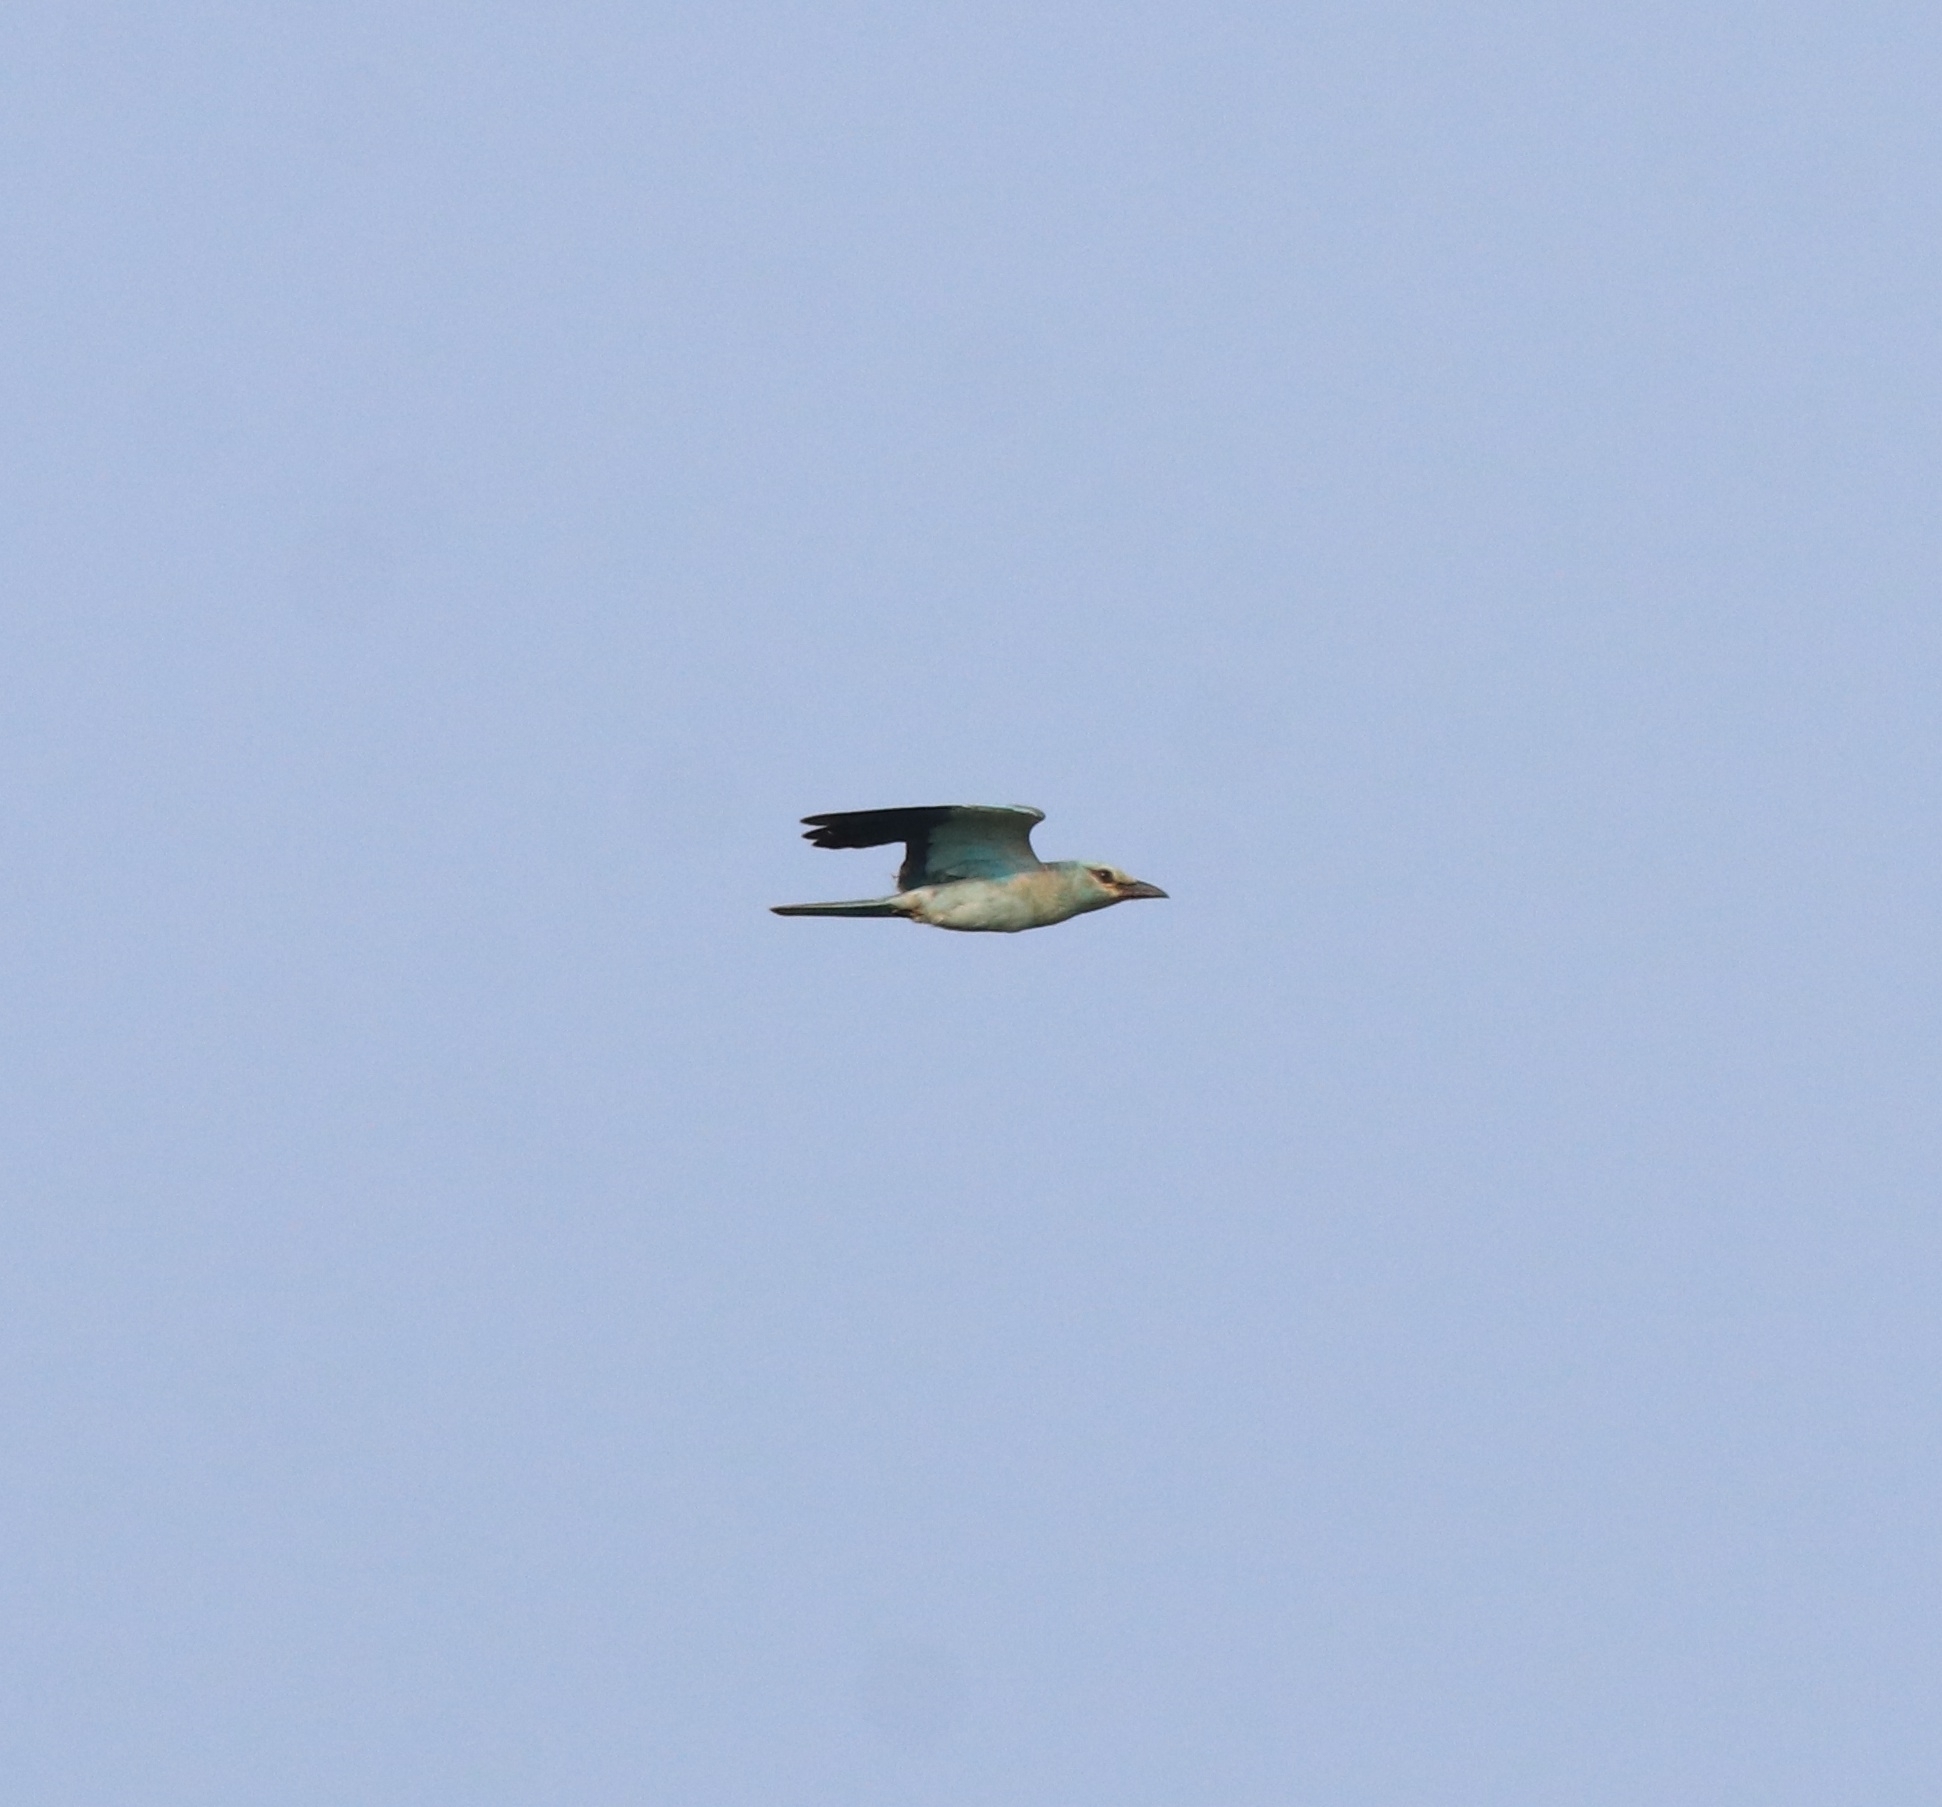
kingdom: Animalia
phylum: Chordata
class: Aves
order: Coraciiformes
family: Coraciidae
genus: Coracias
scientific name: Coracias garrulus
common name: European roller
